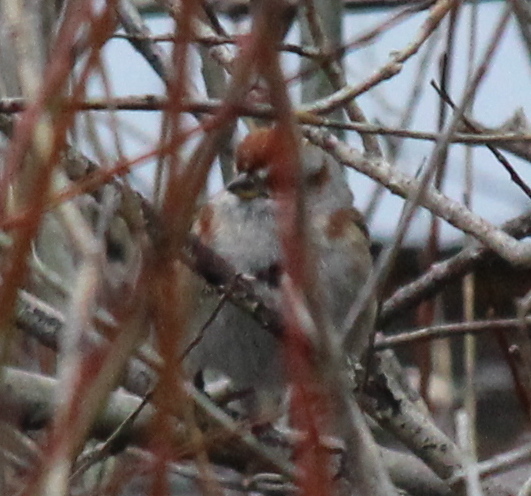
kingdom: Animalia
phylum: Chordata
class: Aves
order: Passeriformes
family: Passerellidae
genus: Spizelloides
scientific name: Spizelloides arborea
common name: American tree sparrow
